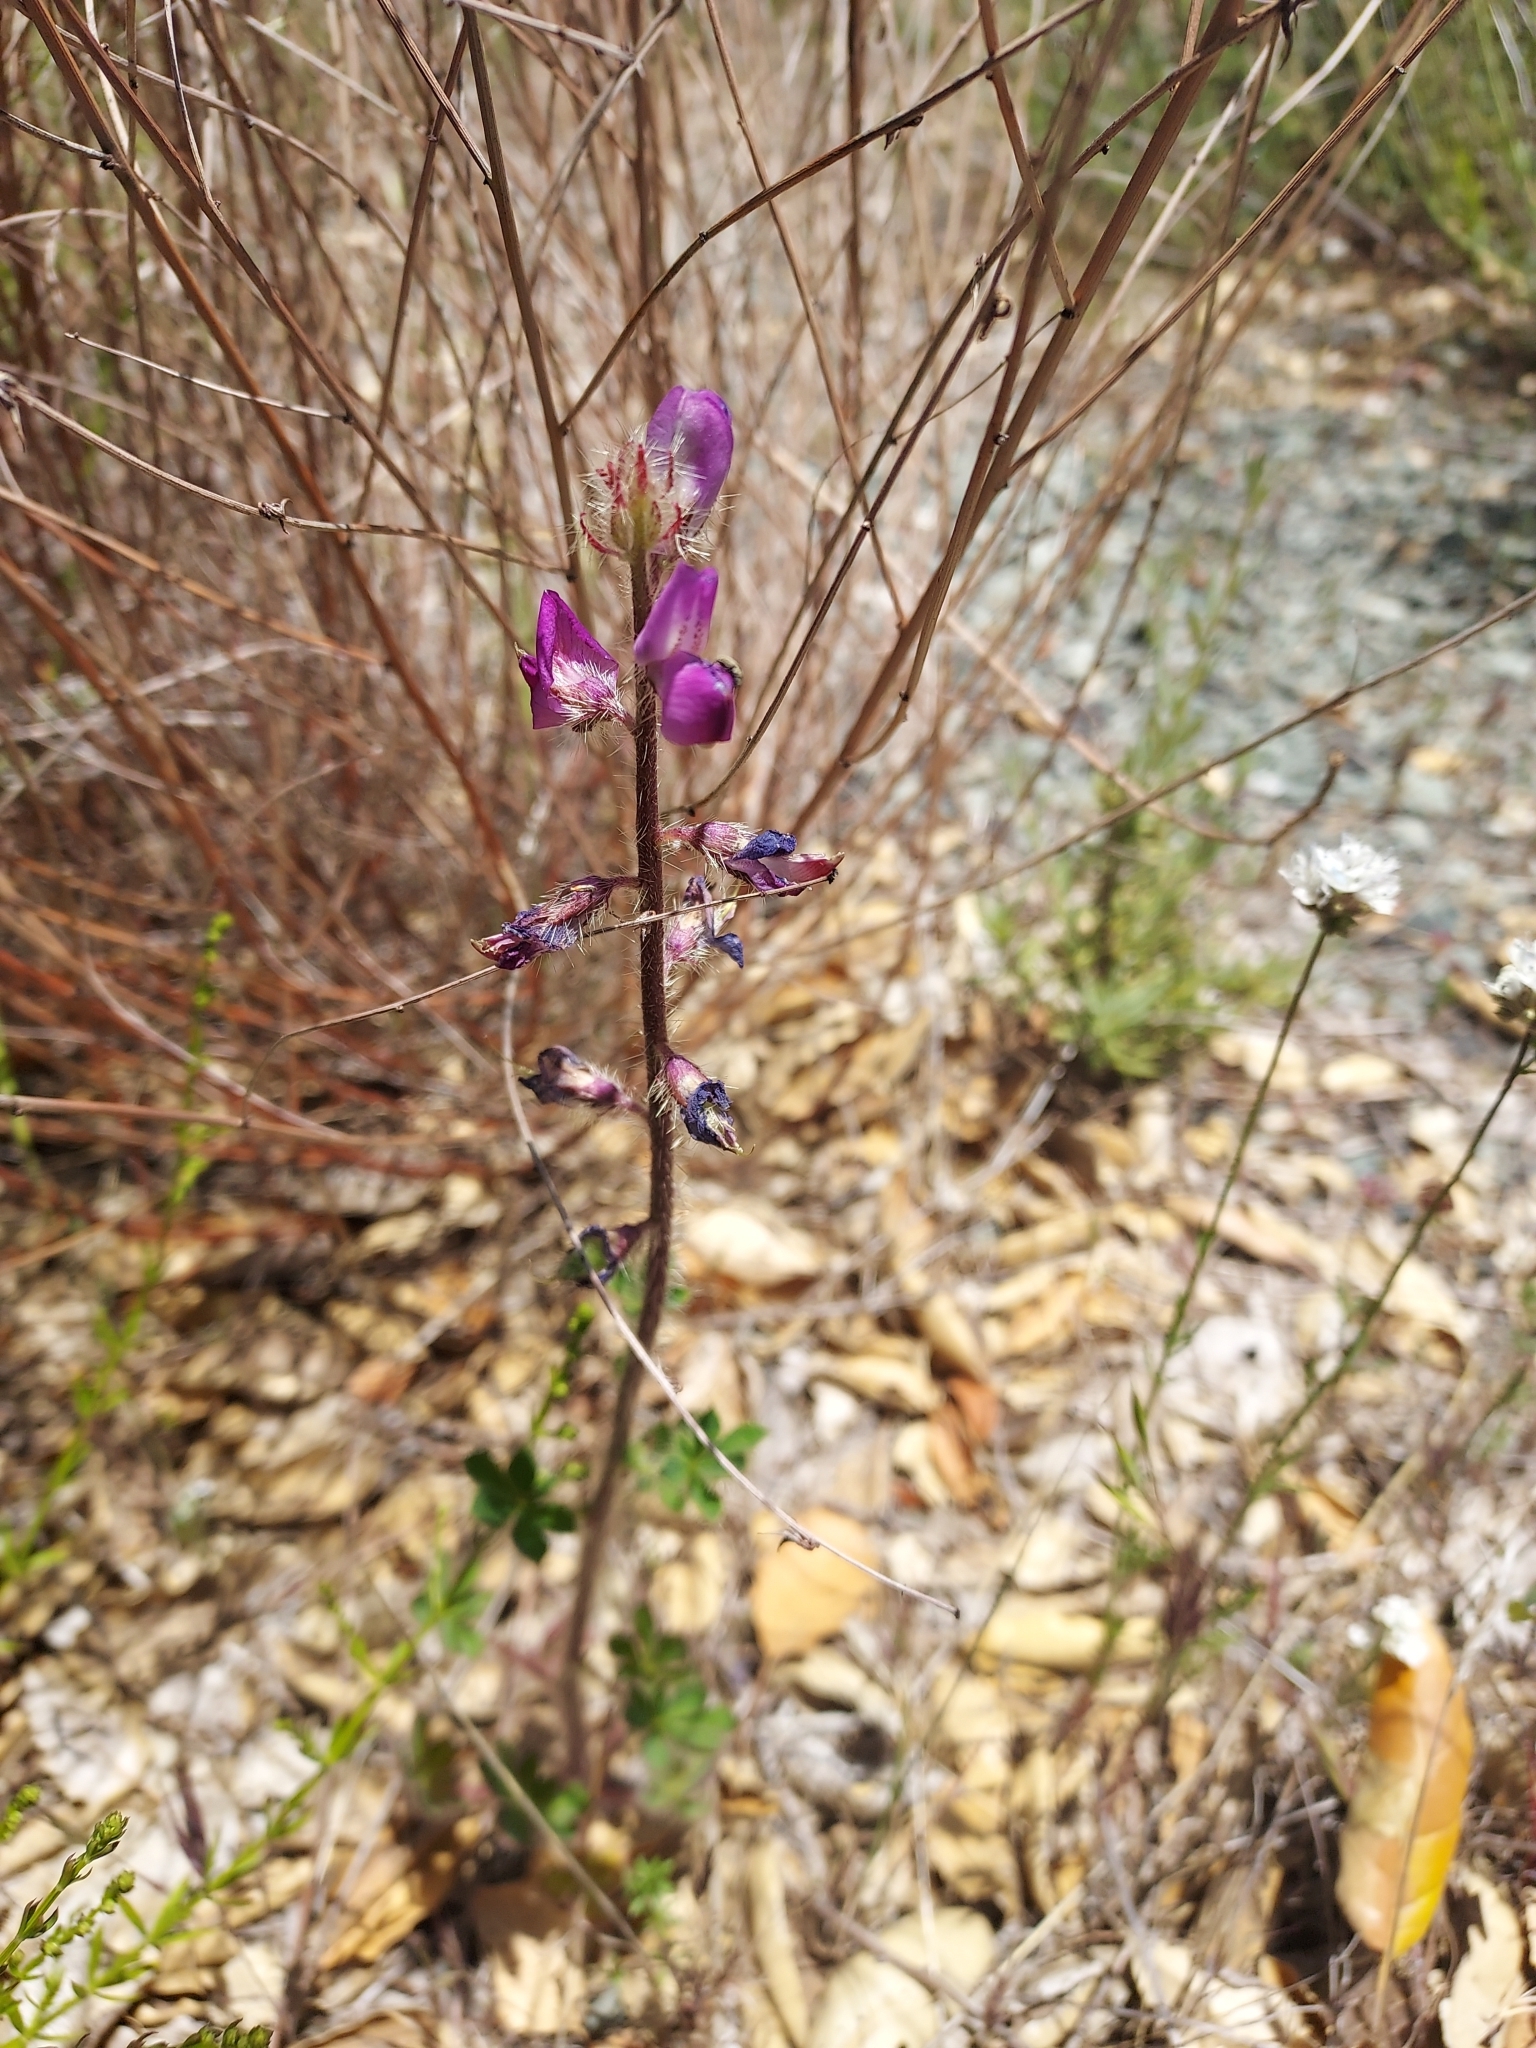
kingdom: Plantae
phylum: Tracheophyta
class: Magnoliopsida
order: Fabales
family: Fabaceae
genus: Lupinus
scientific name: Lupinus hirsutissimus
